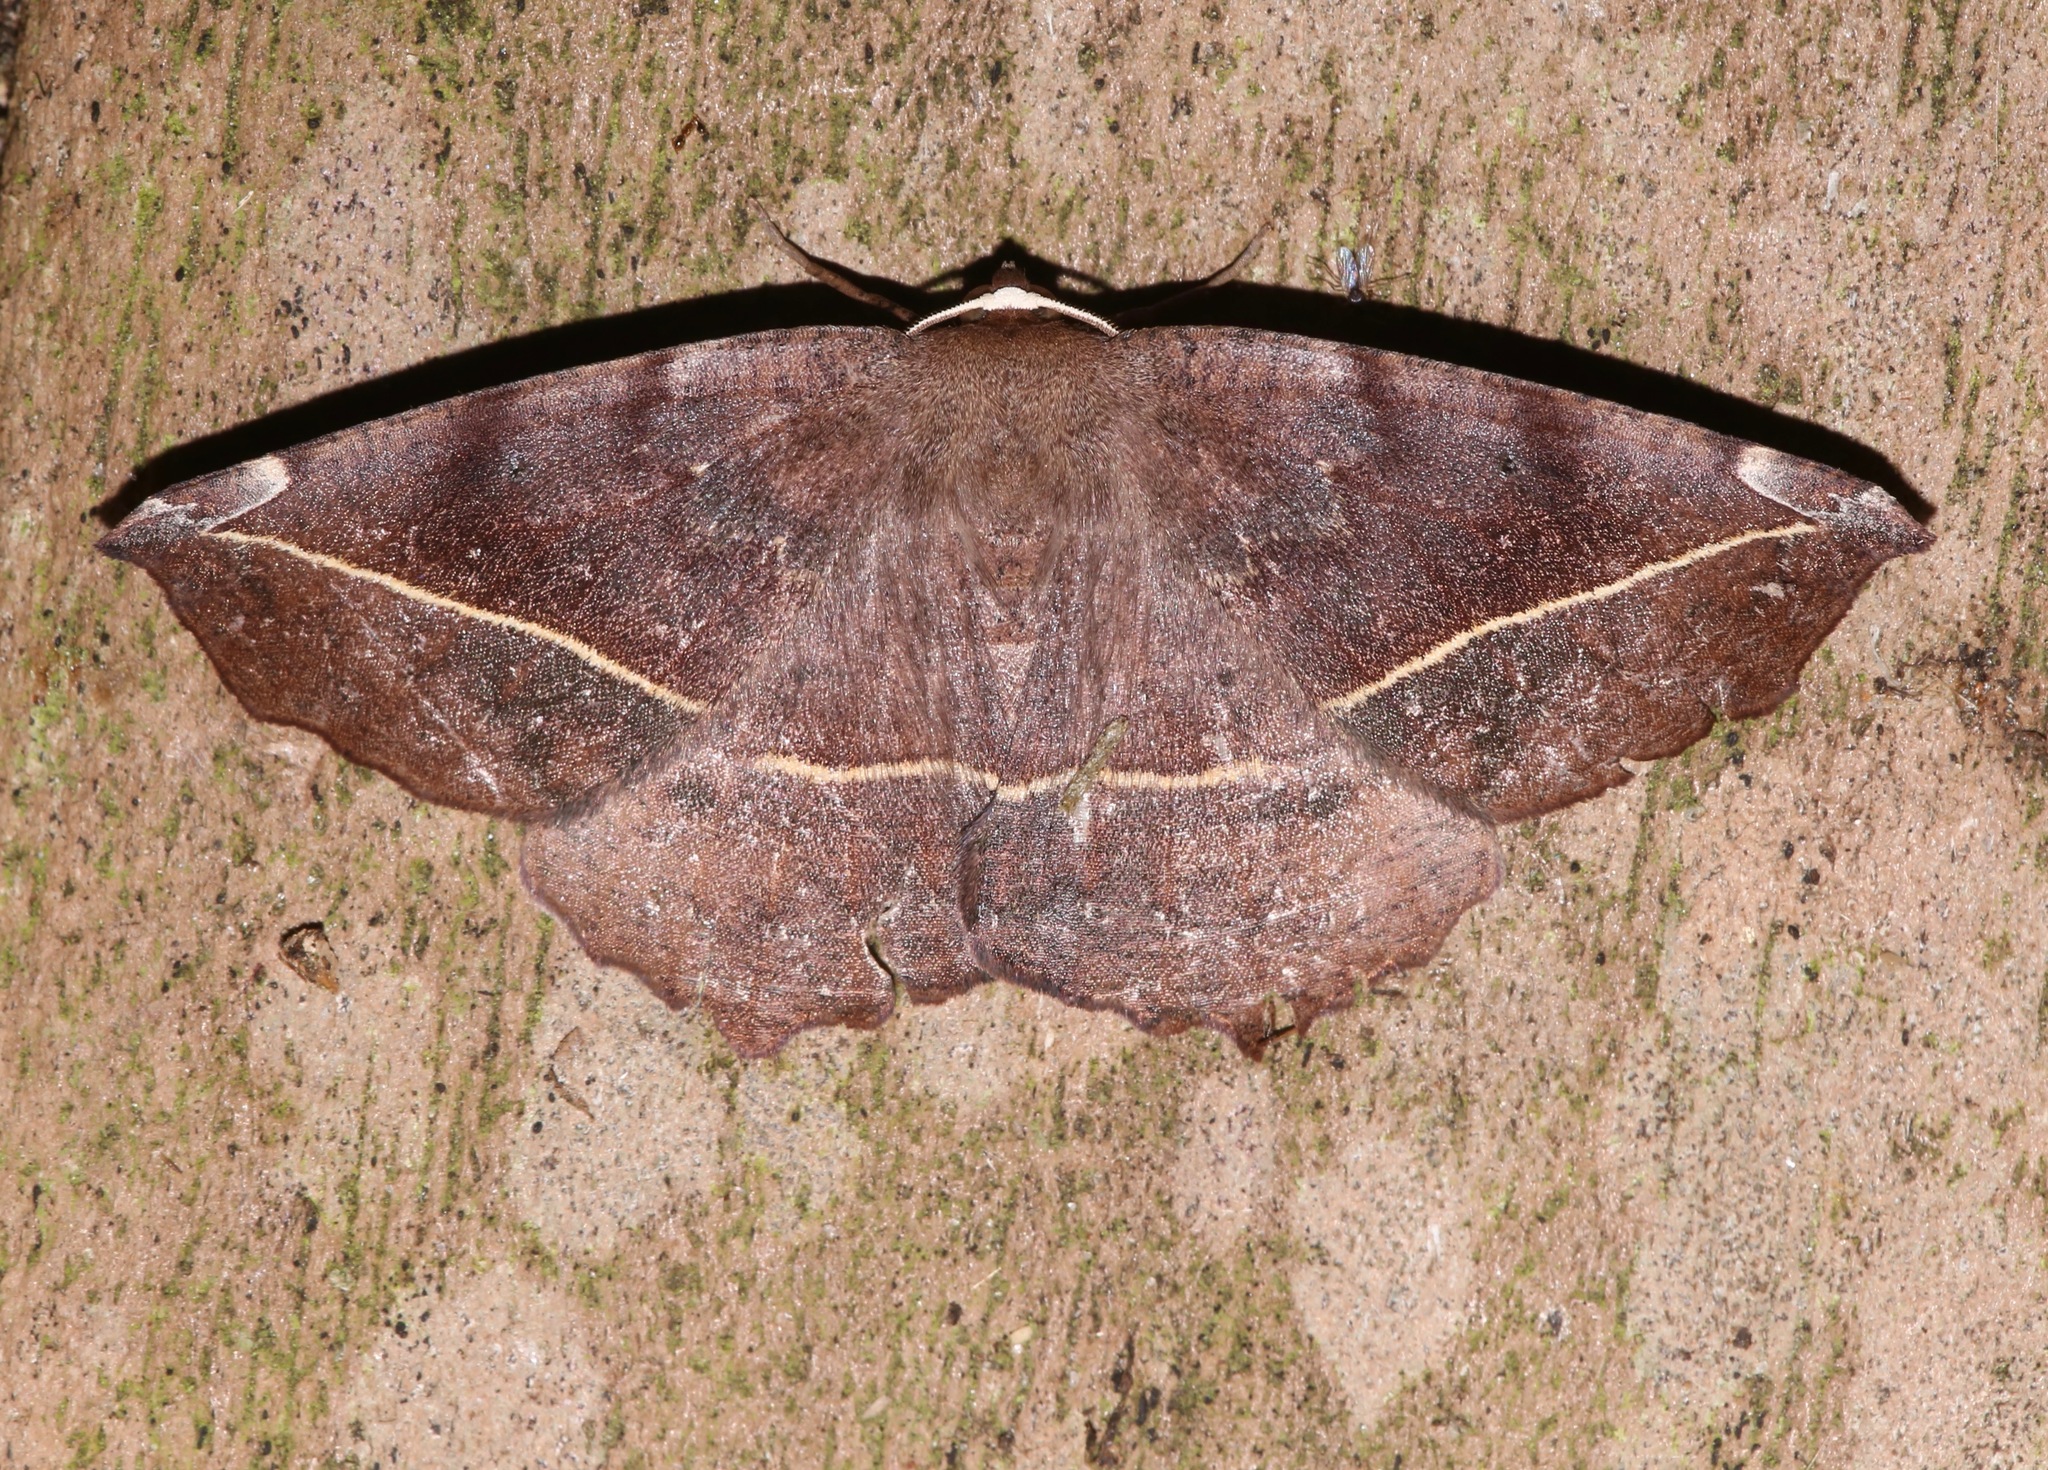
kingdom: Animalia
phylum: Arthropoda
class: Insecta
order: Lepidoptera
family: Geometridae
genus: Eutrapela
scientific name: Eutrapela clemataria
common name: Curved-toothed geometer
